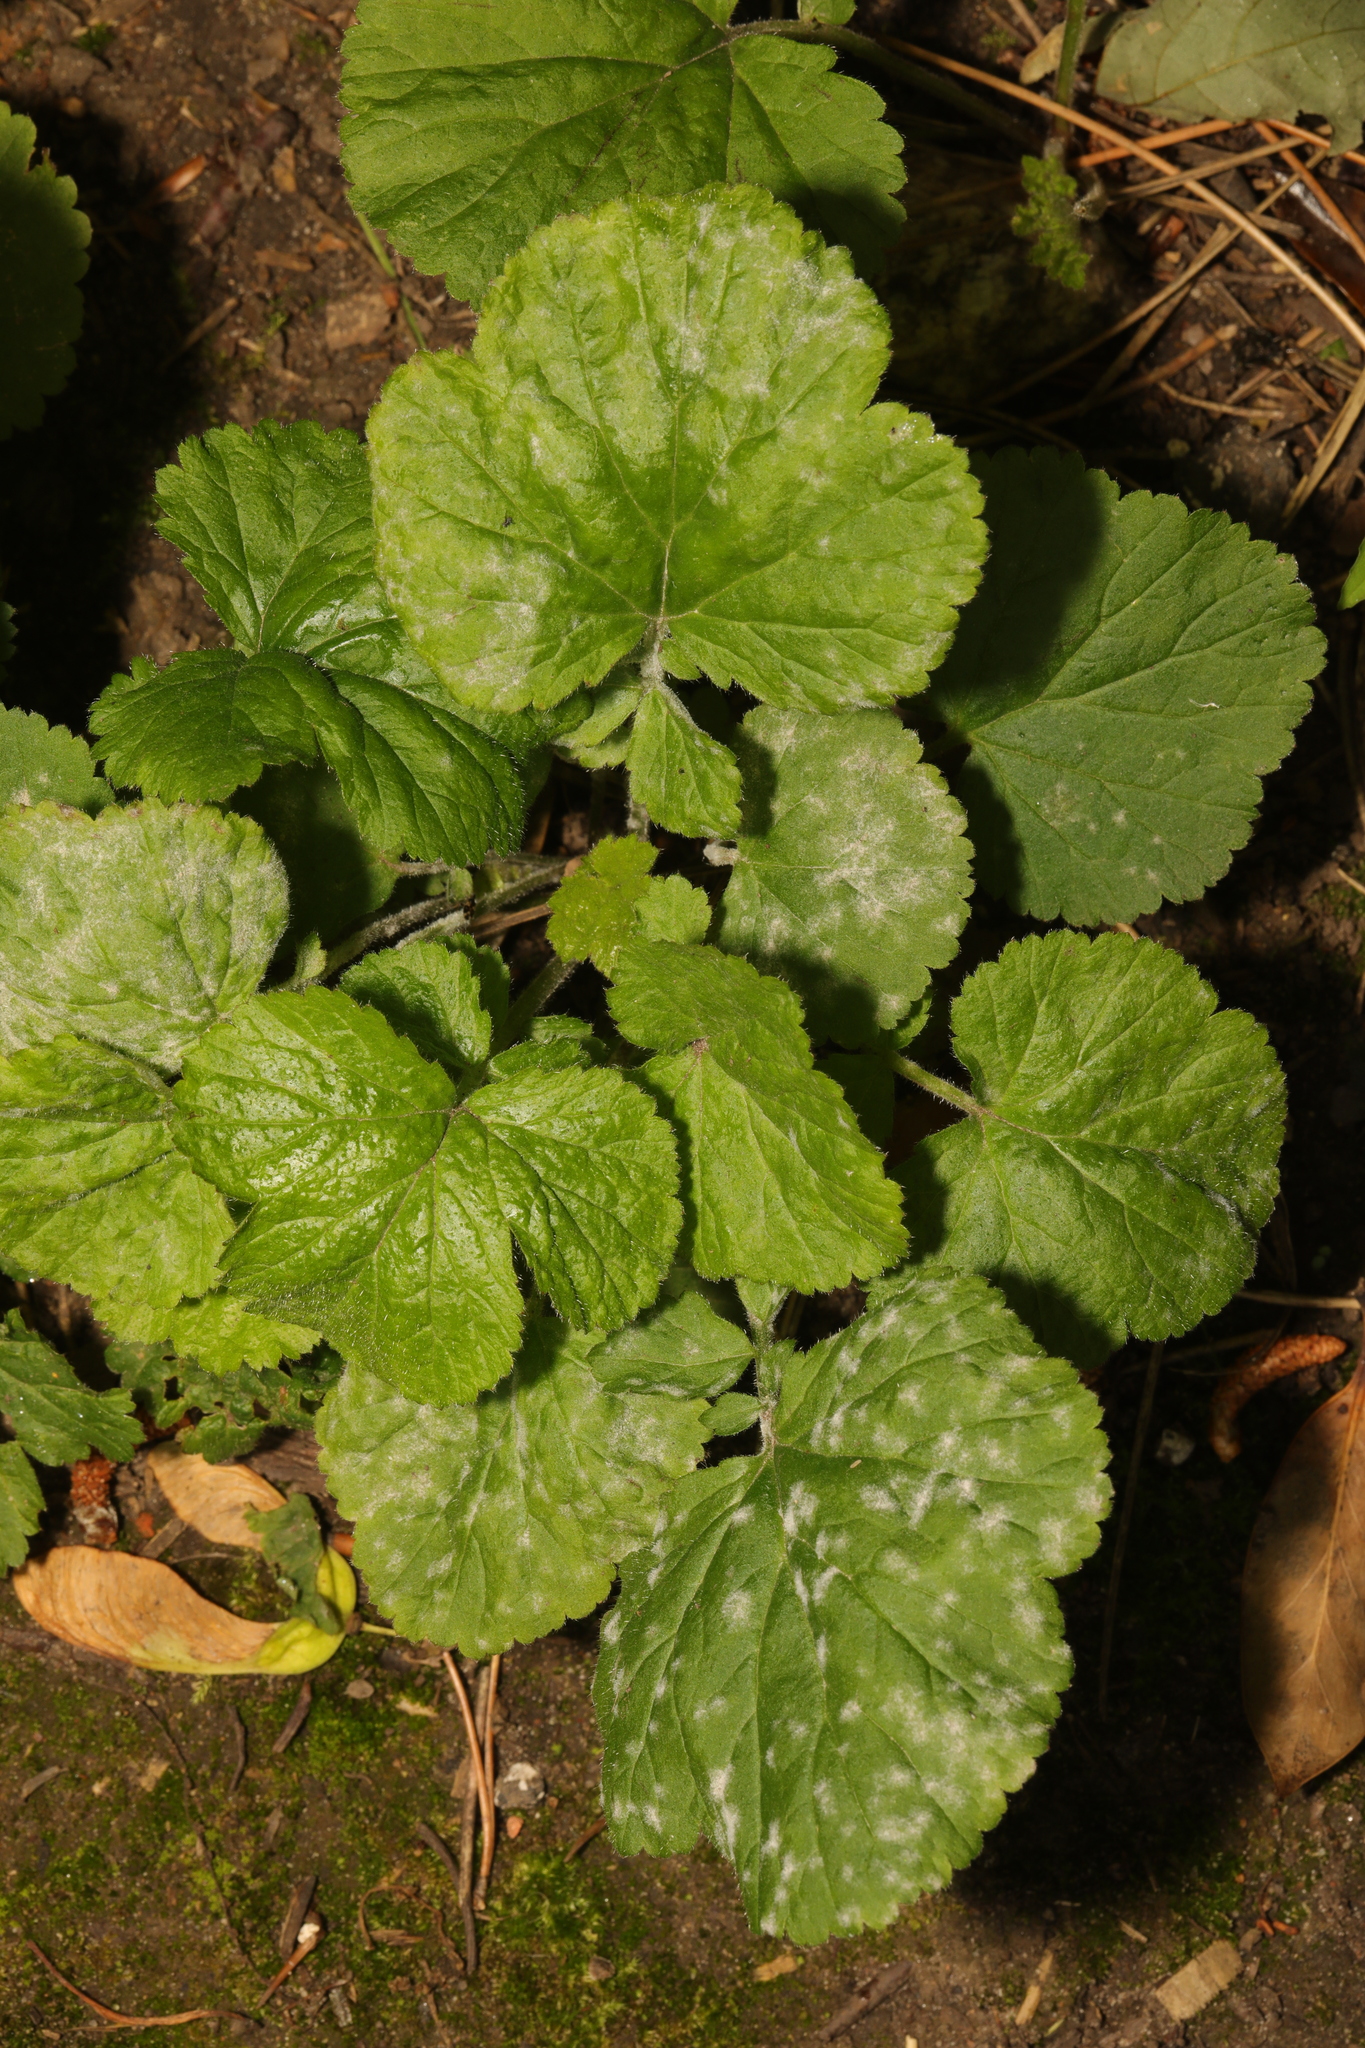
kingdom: Plantae
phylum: Tracheophyta
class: Magnoliopsida
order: Rosales
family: Rosaceae
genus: Geum
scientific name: Geum urbanum
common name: Wood avens
